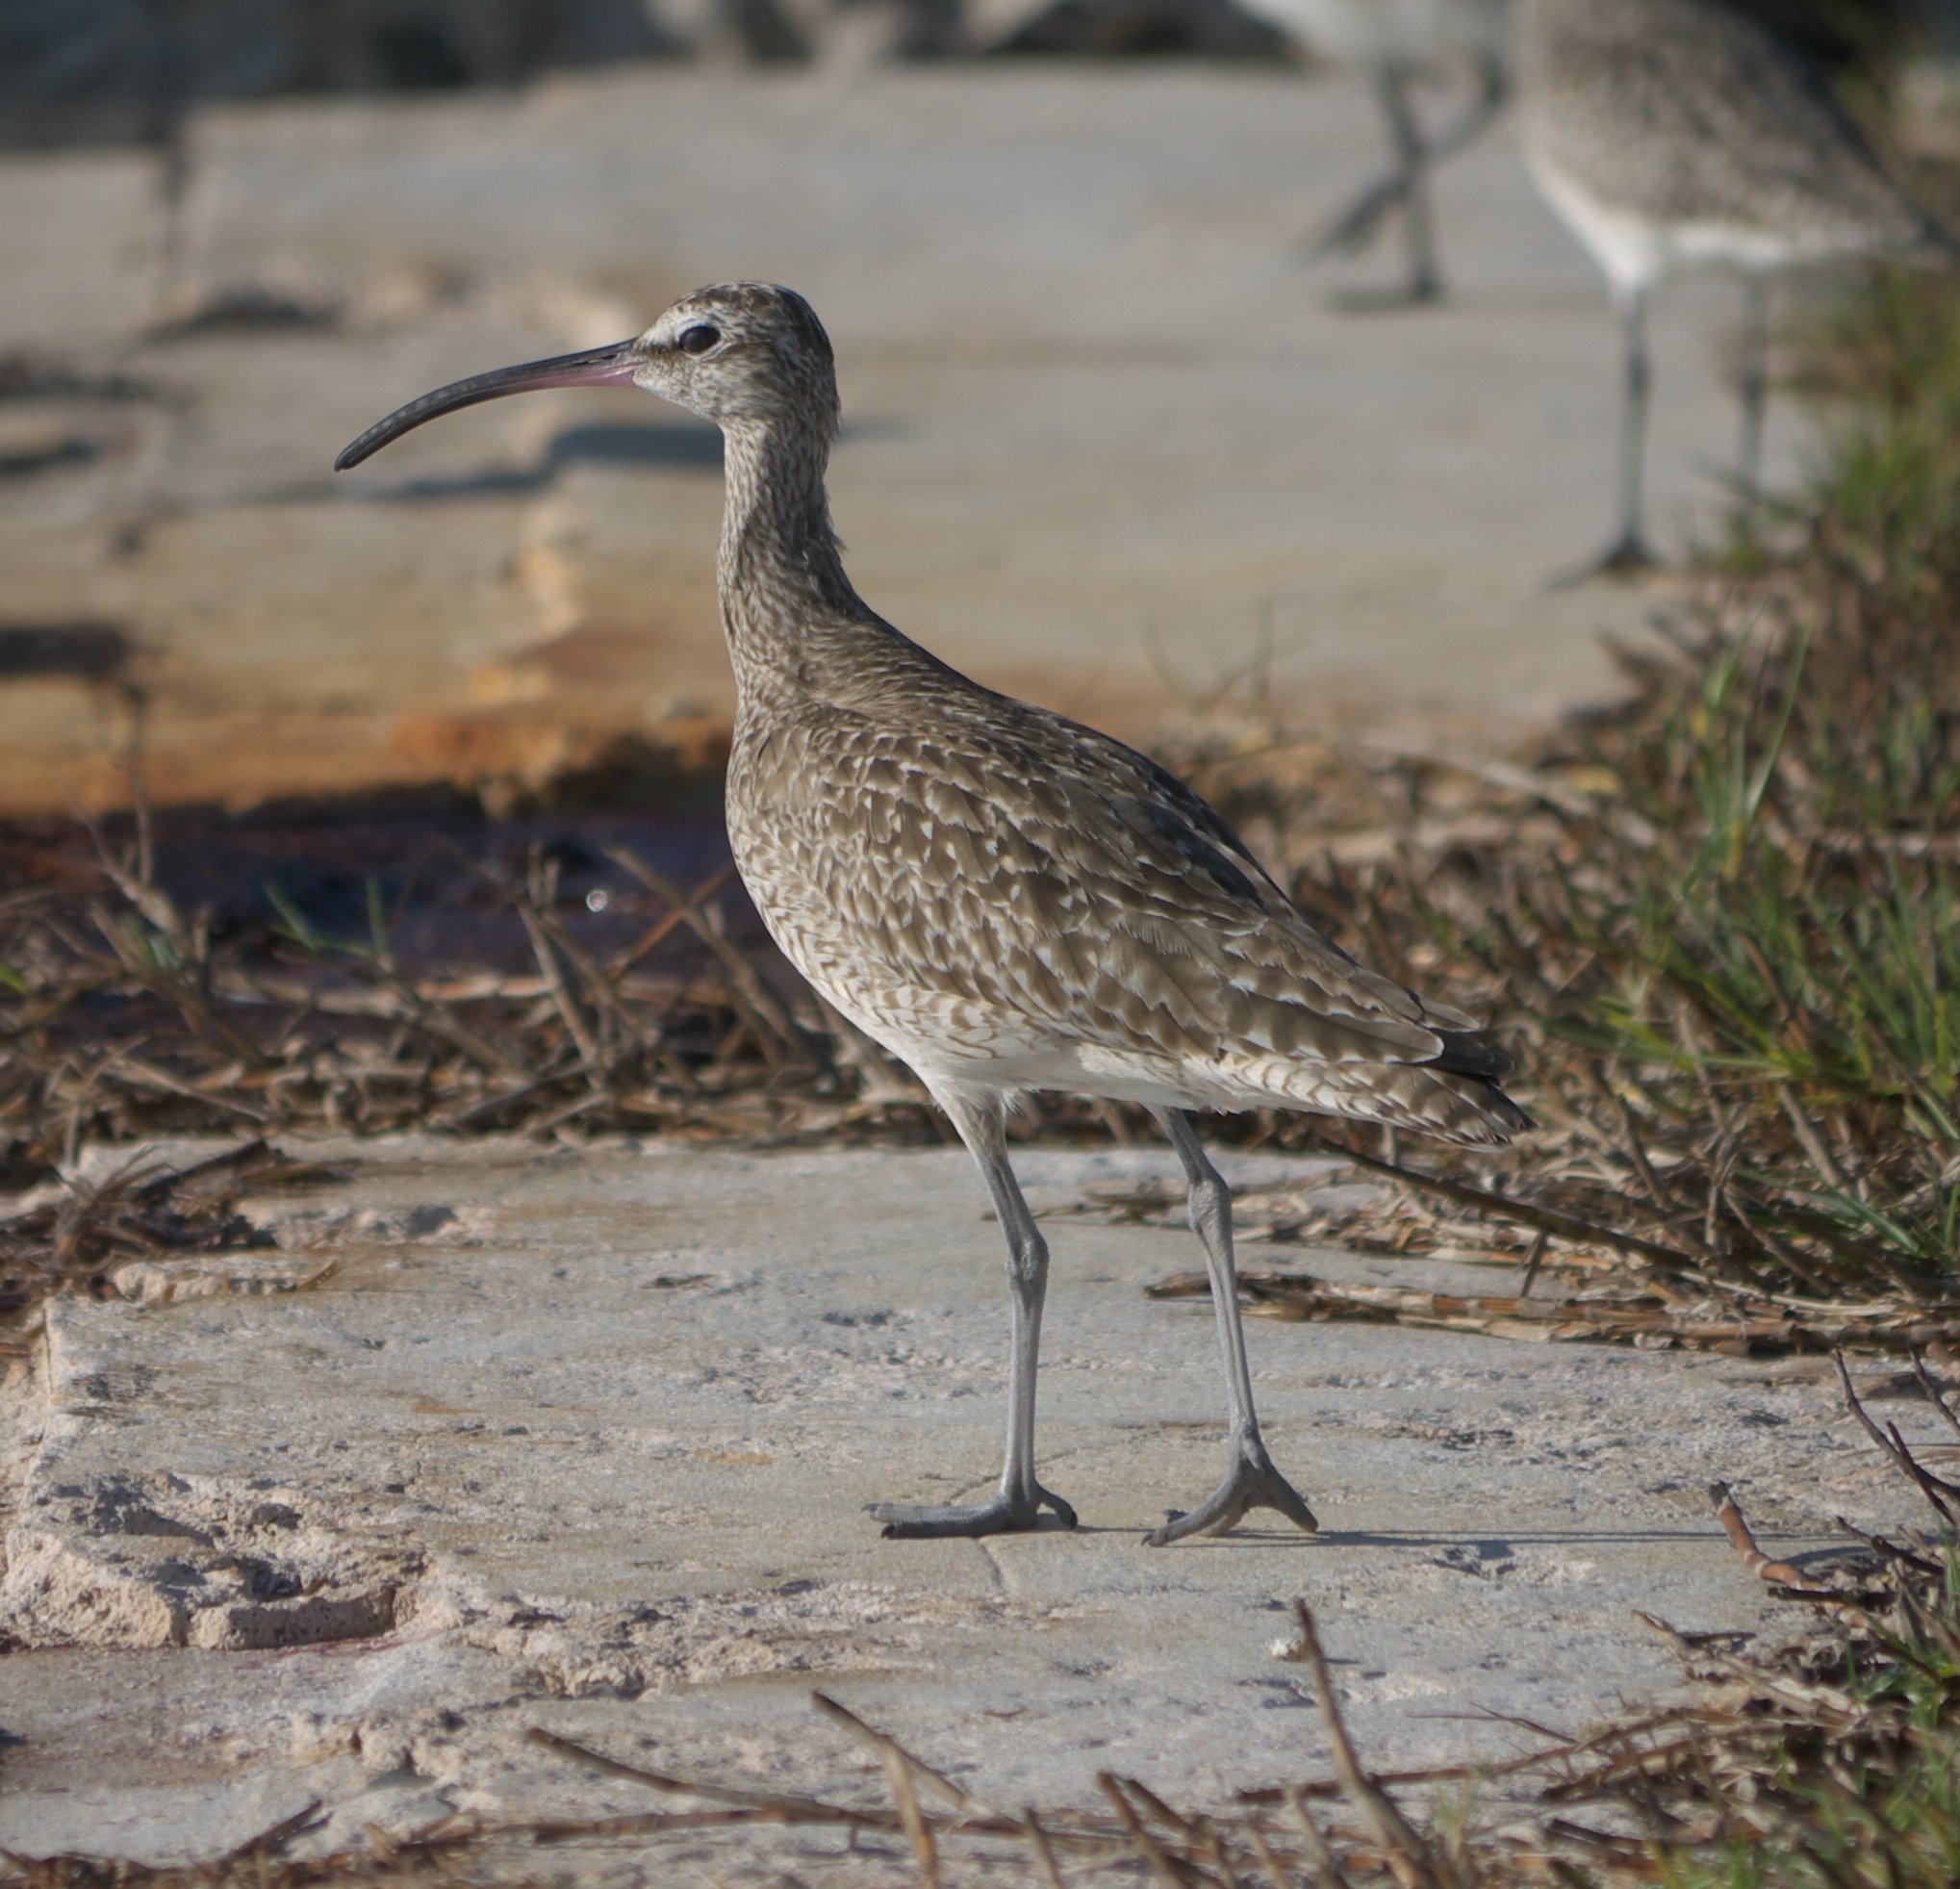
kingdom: Animalia
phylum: Chordata
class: Aves
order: Charadriiformes
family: Scolopacidae
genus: Numenius
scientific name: Numenius phaeopus
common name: Whimbrel
